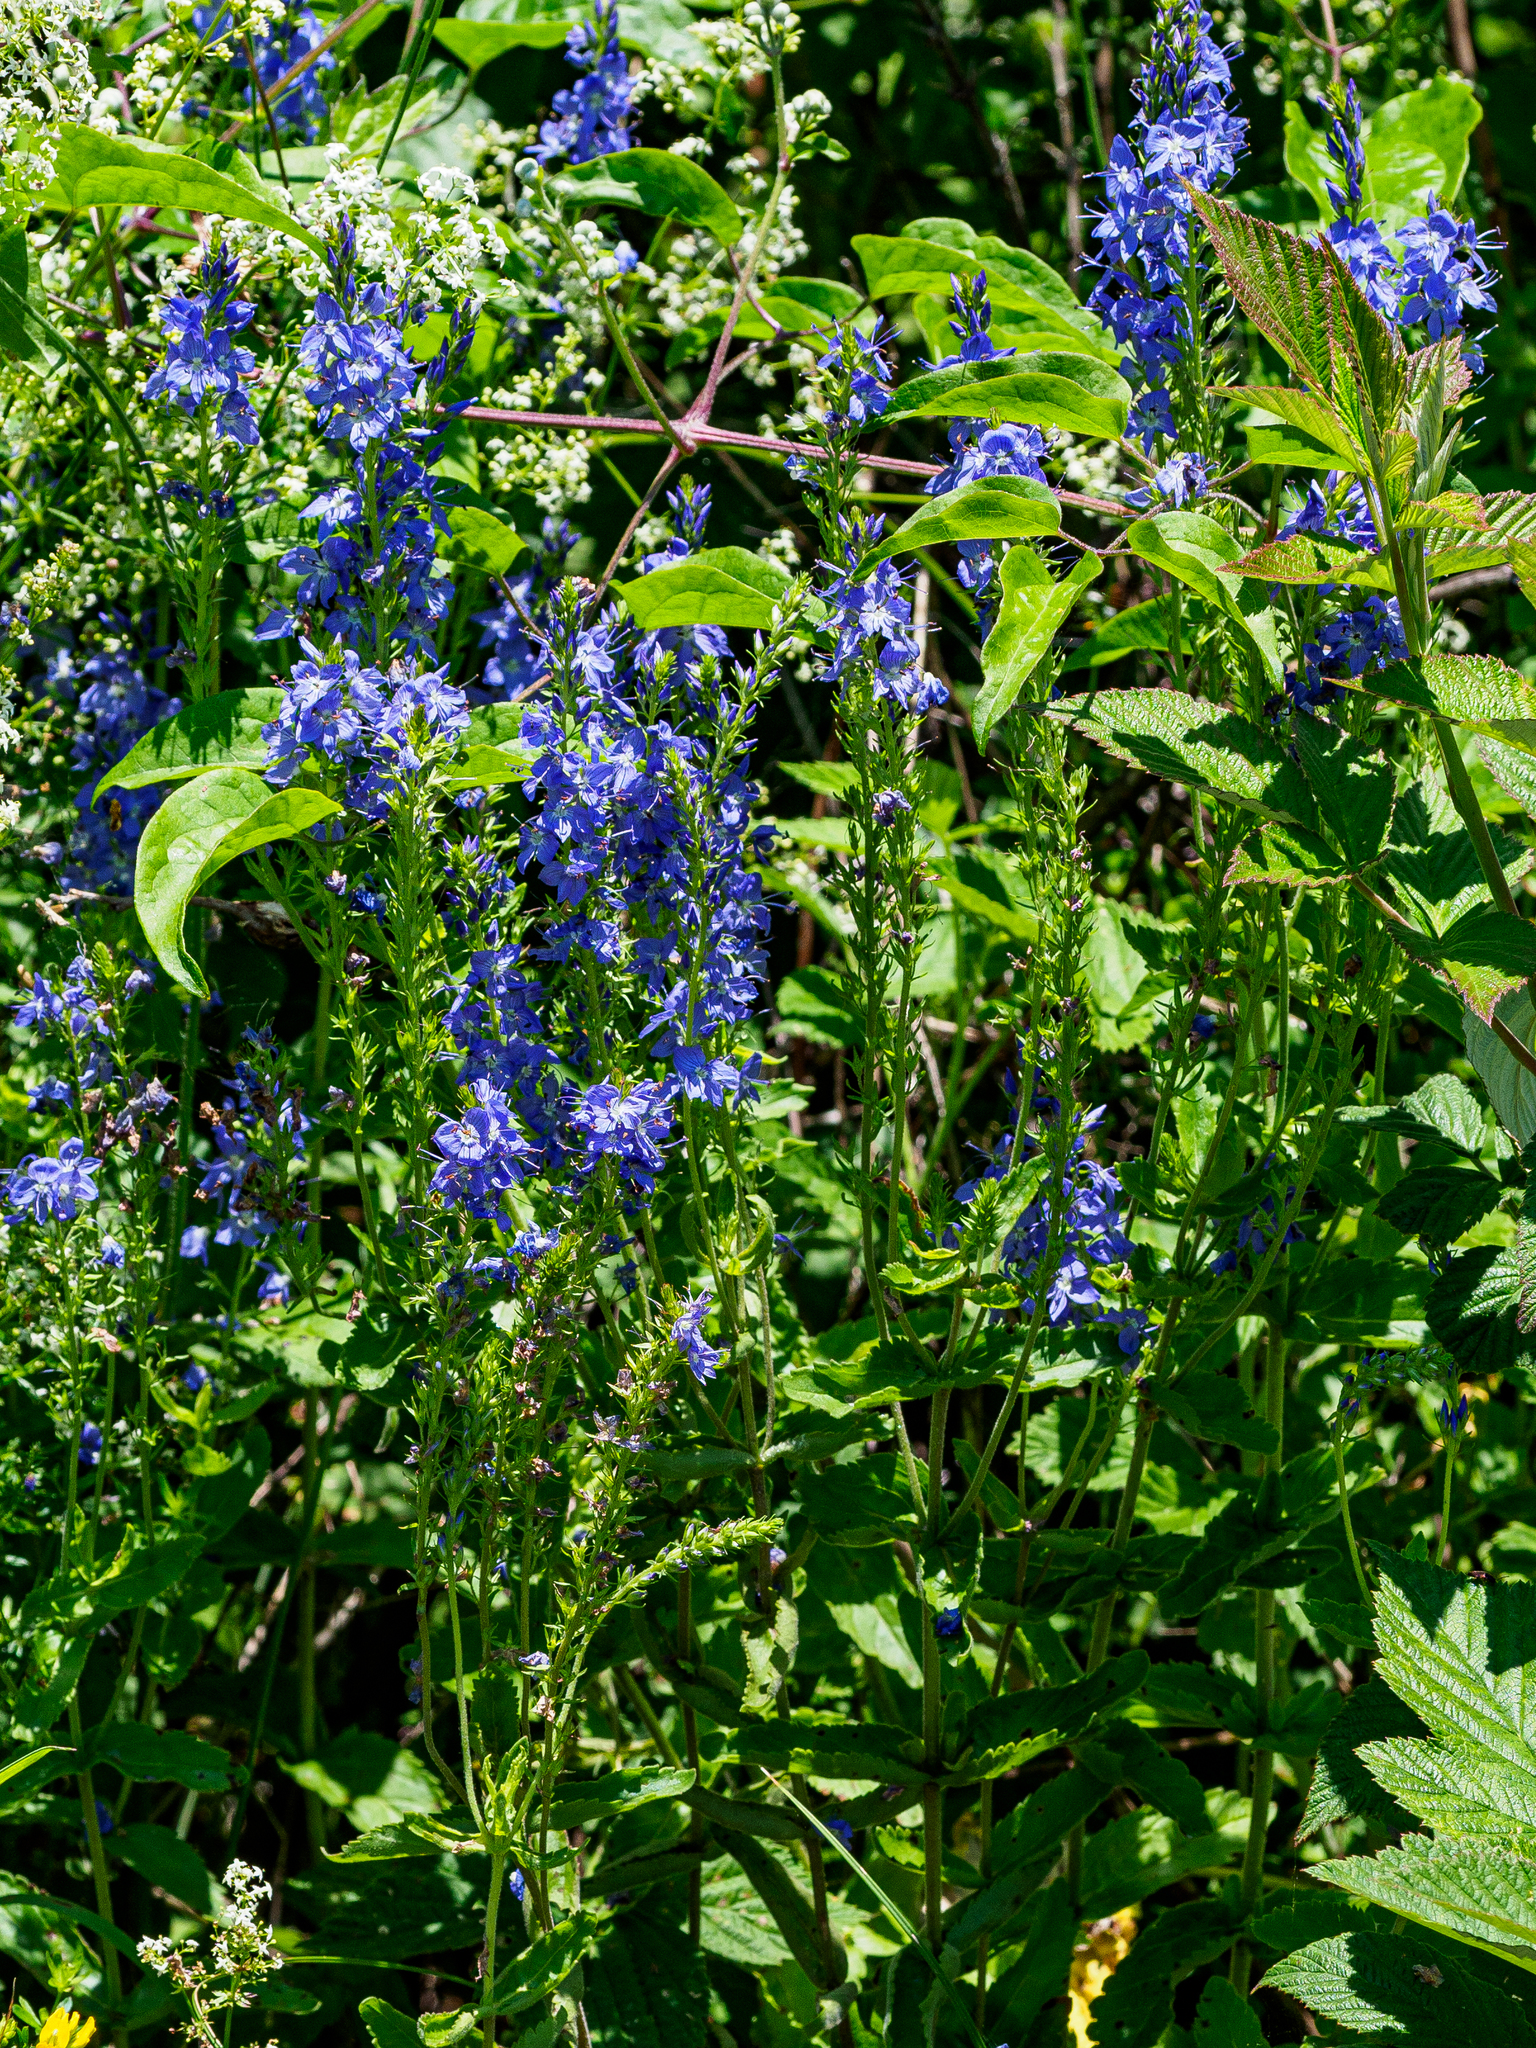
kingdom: Plantae
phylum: Tracheophyta
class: Magnoliopsida
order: Lamiales
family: Plantaginaceae
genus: Veronica
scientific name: Veronica teucrium
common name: Large speedwell
